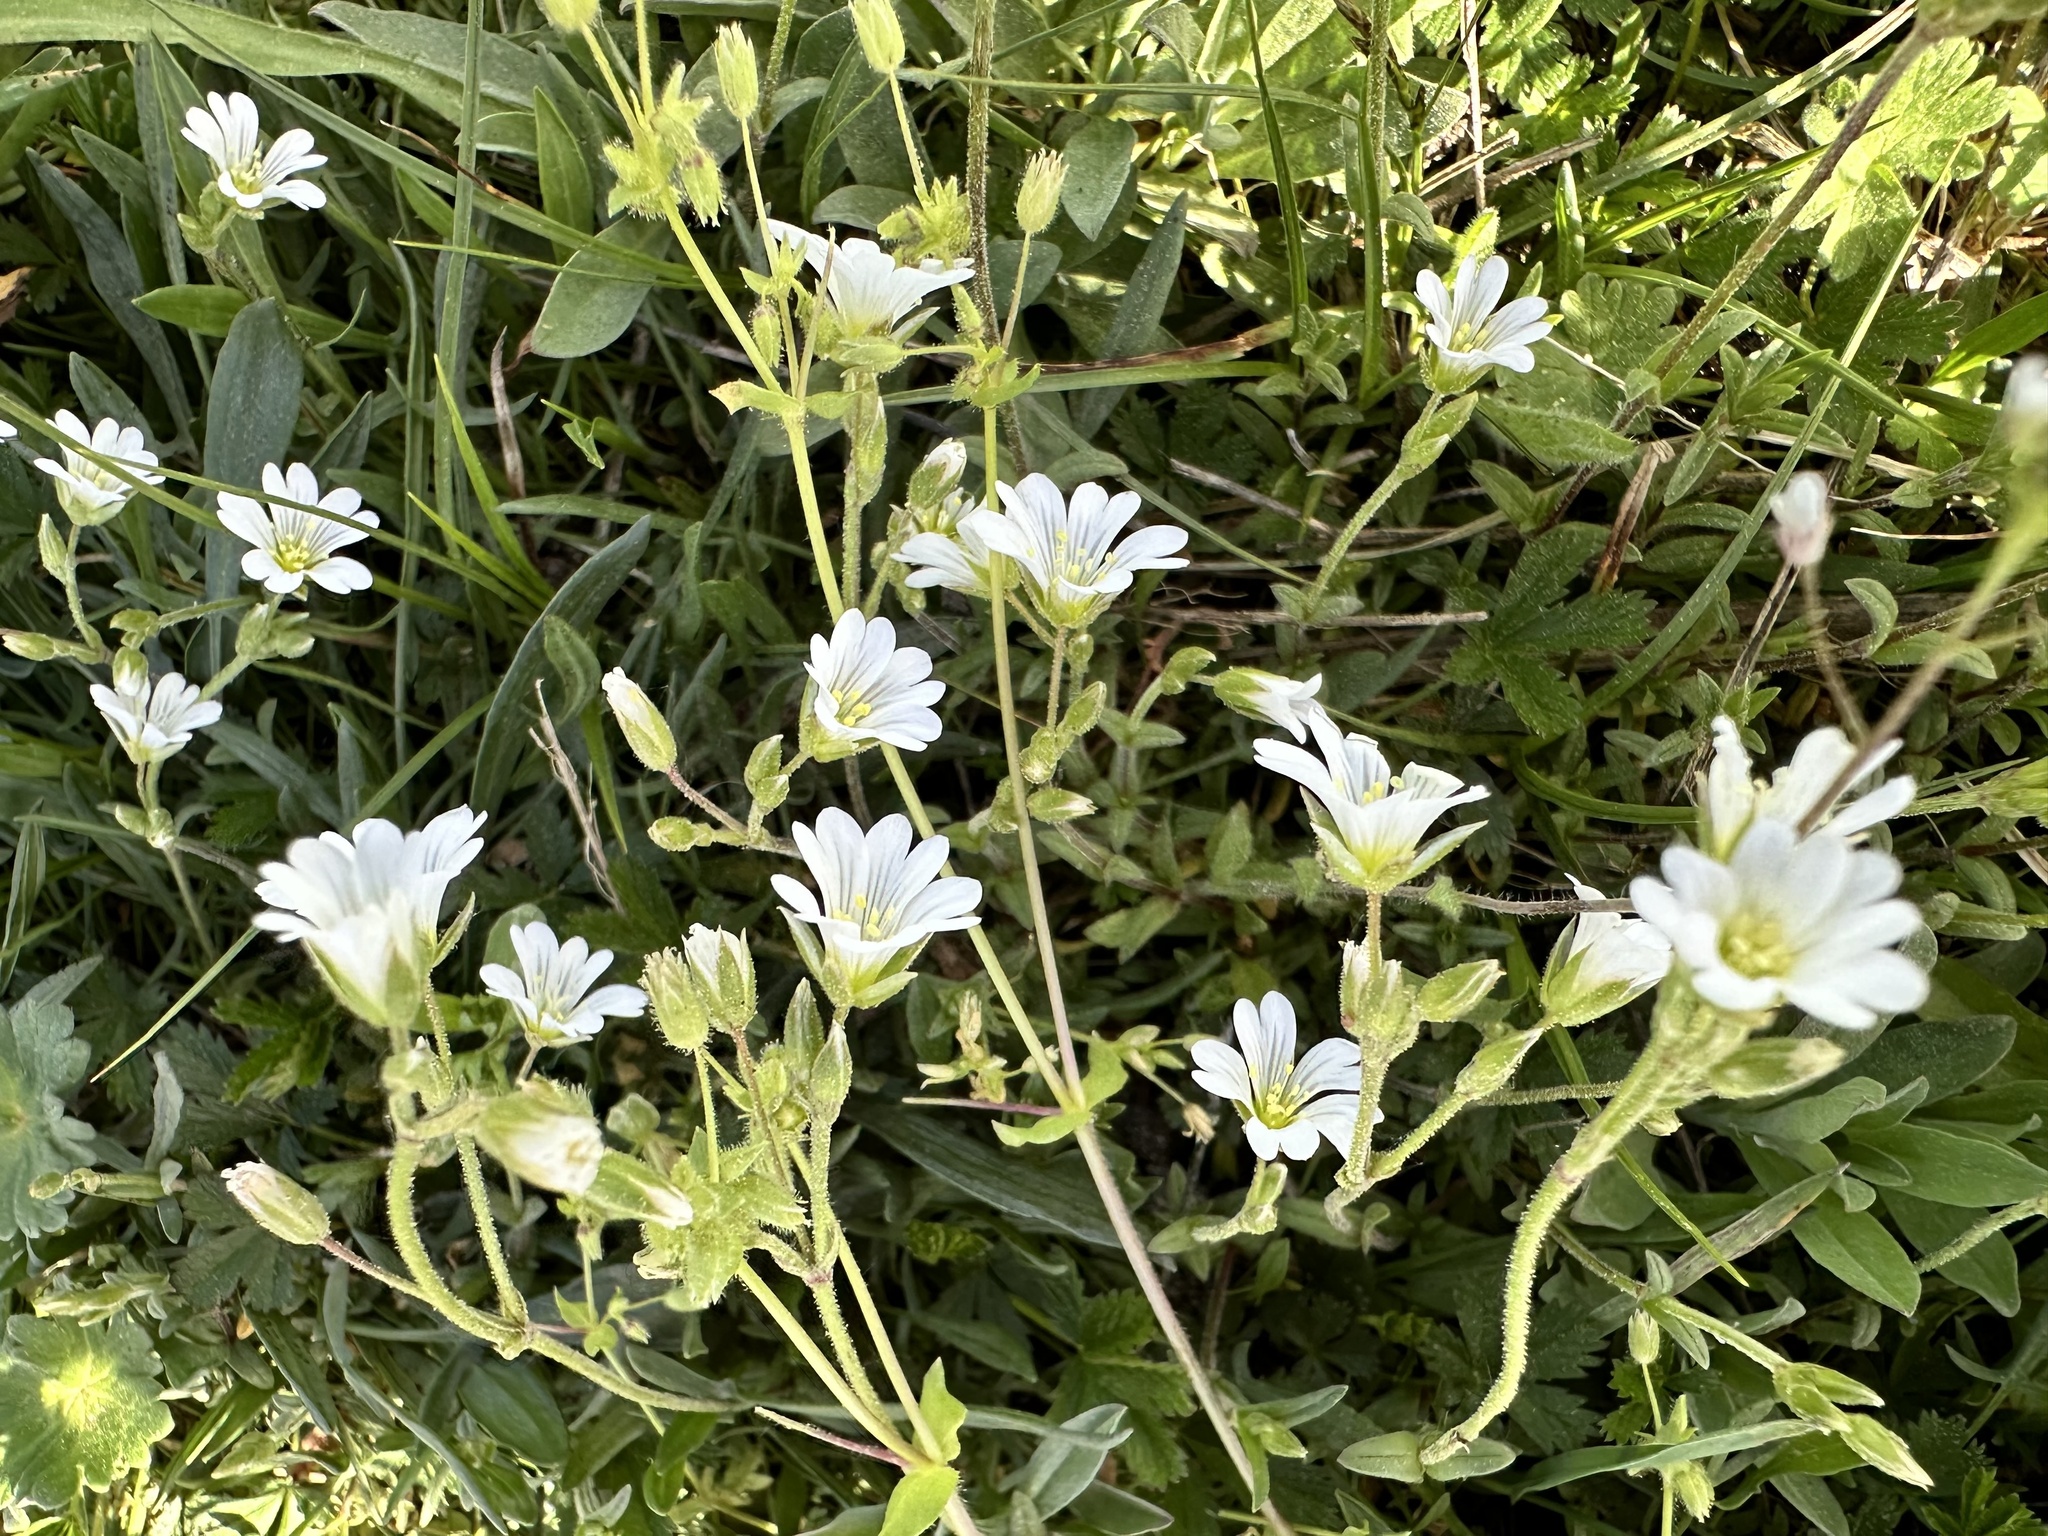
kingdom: Plantae
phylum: Tracheophyta
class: Magnoliopsida
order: Caryophyllales
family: Caryophyllaceae
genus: Cerastium
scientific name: Cerastium arvense
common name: Field mouse-ear
